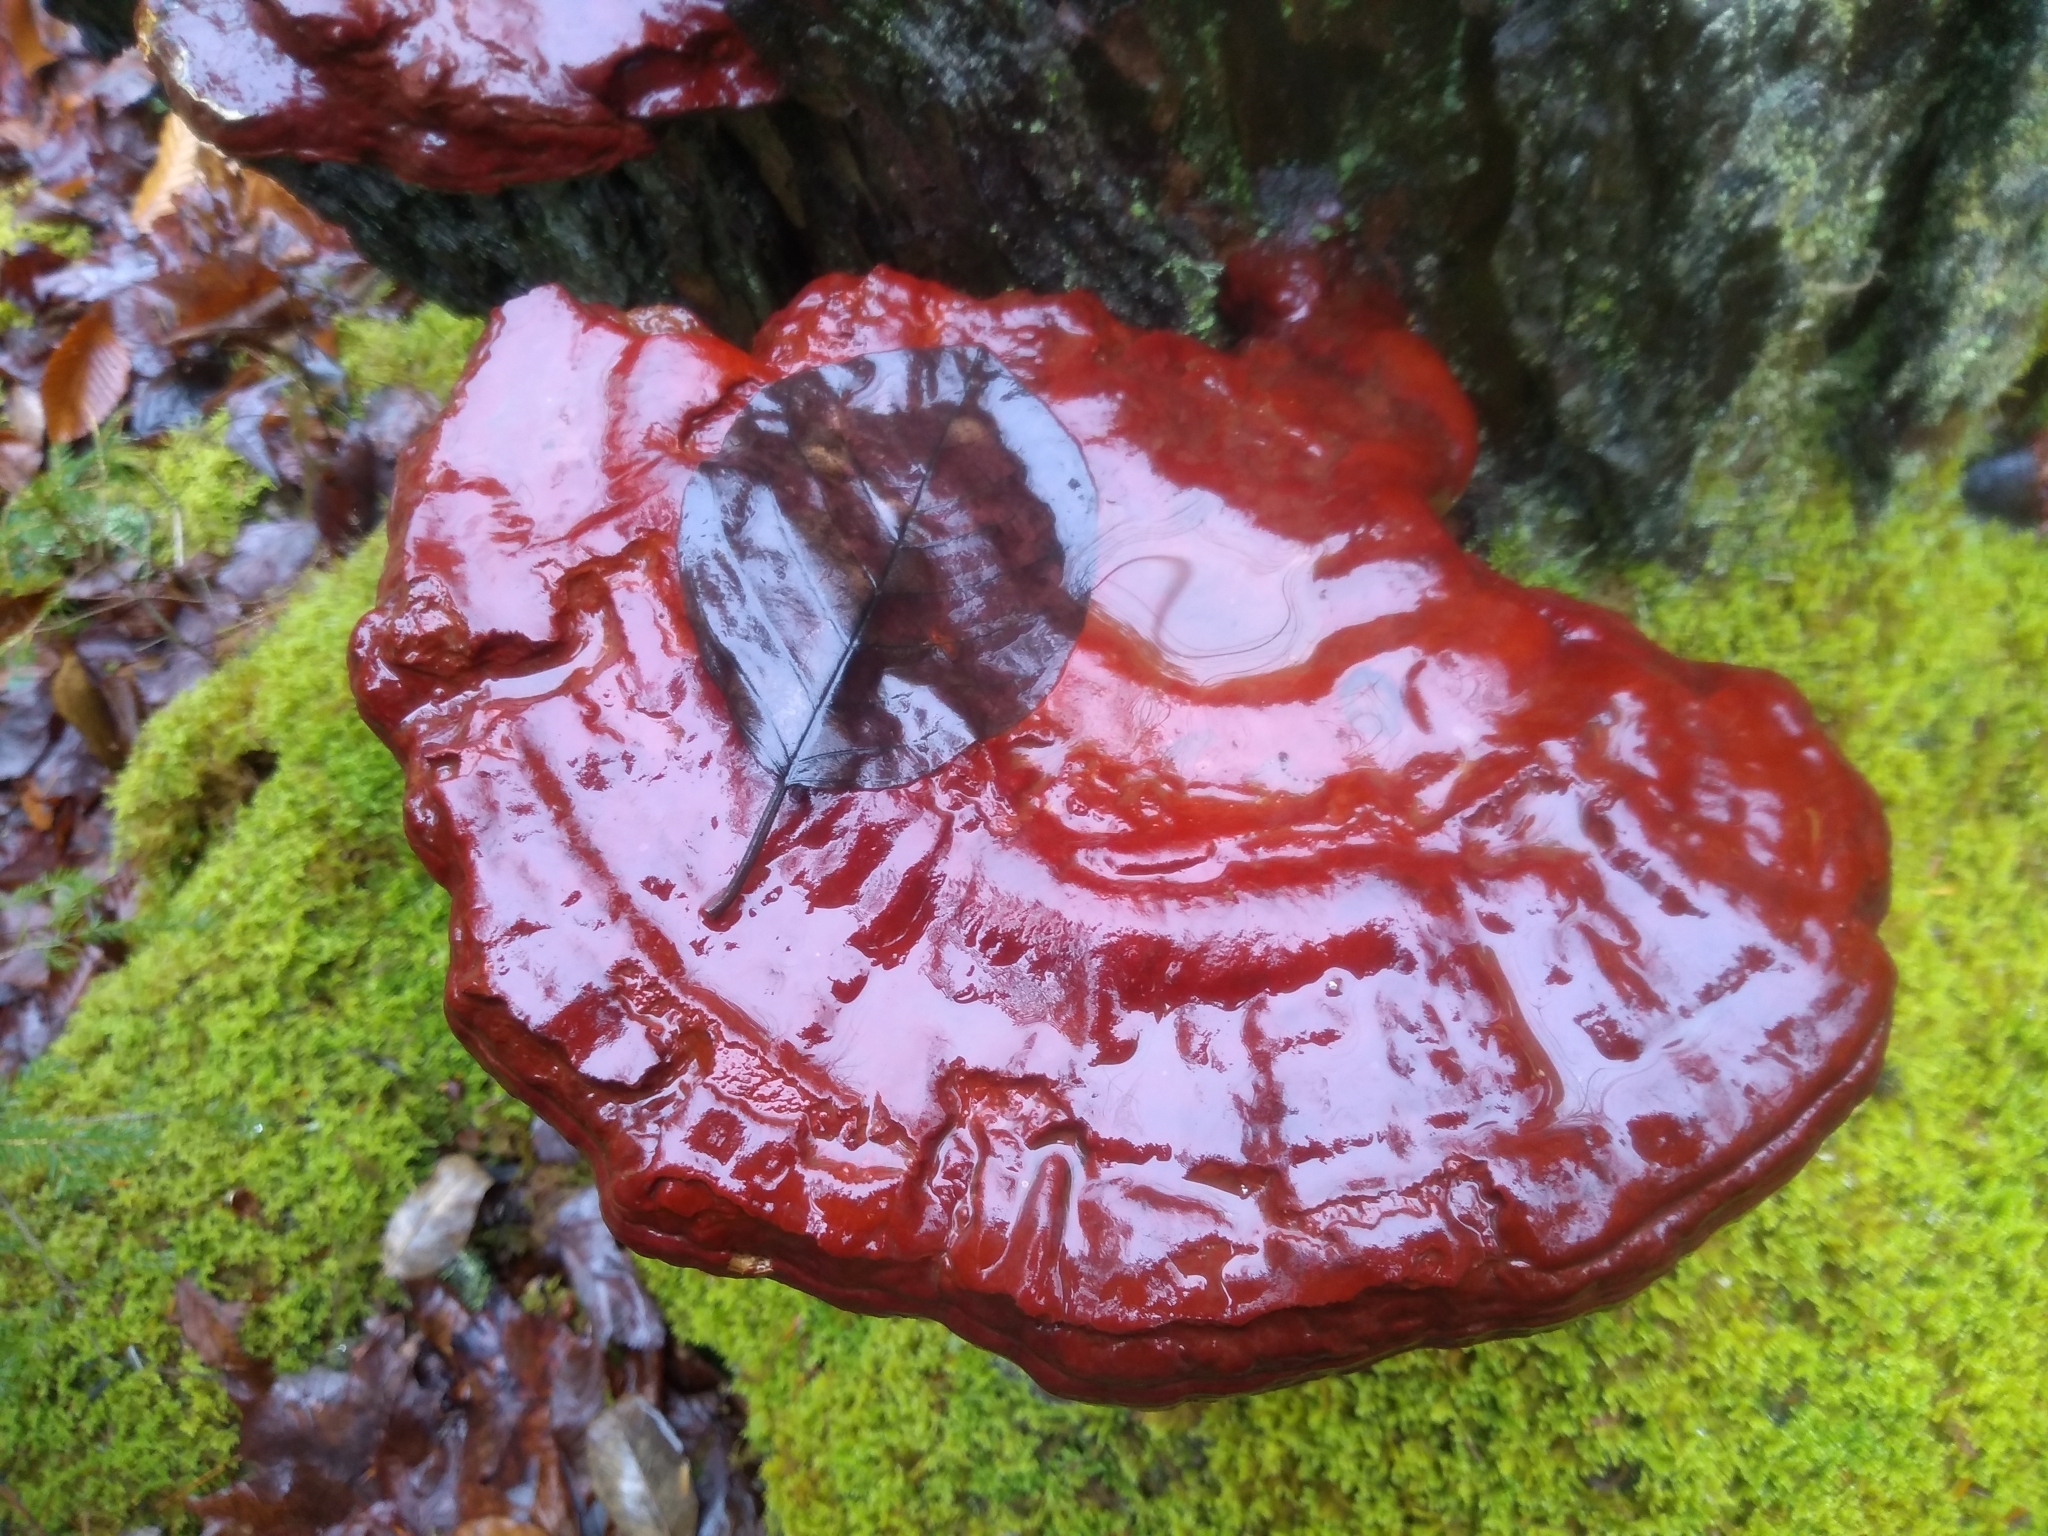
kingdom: Fungi
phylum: Basidiomycota
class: Agaricomycetes
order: Polyporales
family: Polyporaceae
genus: Ganoderma
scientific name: Ganoderma tsugae
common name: Hemlock varnish shelf
